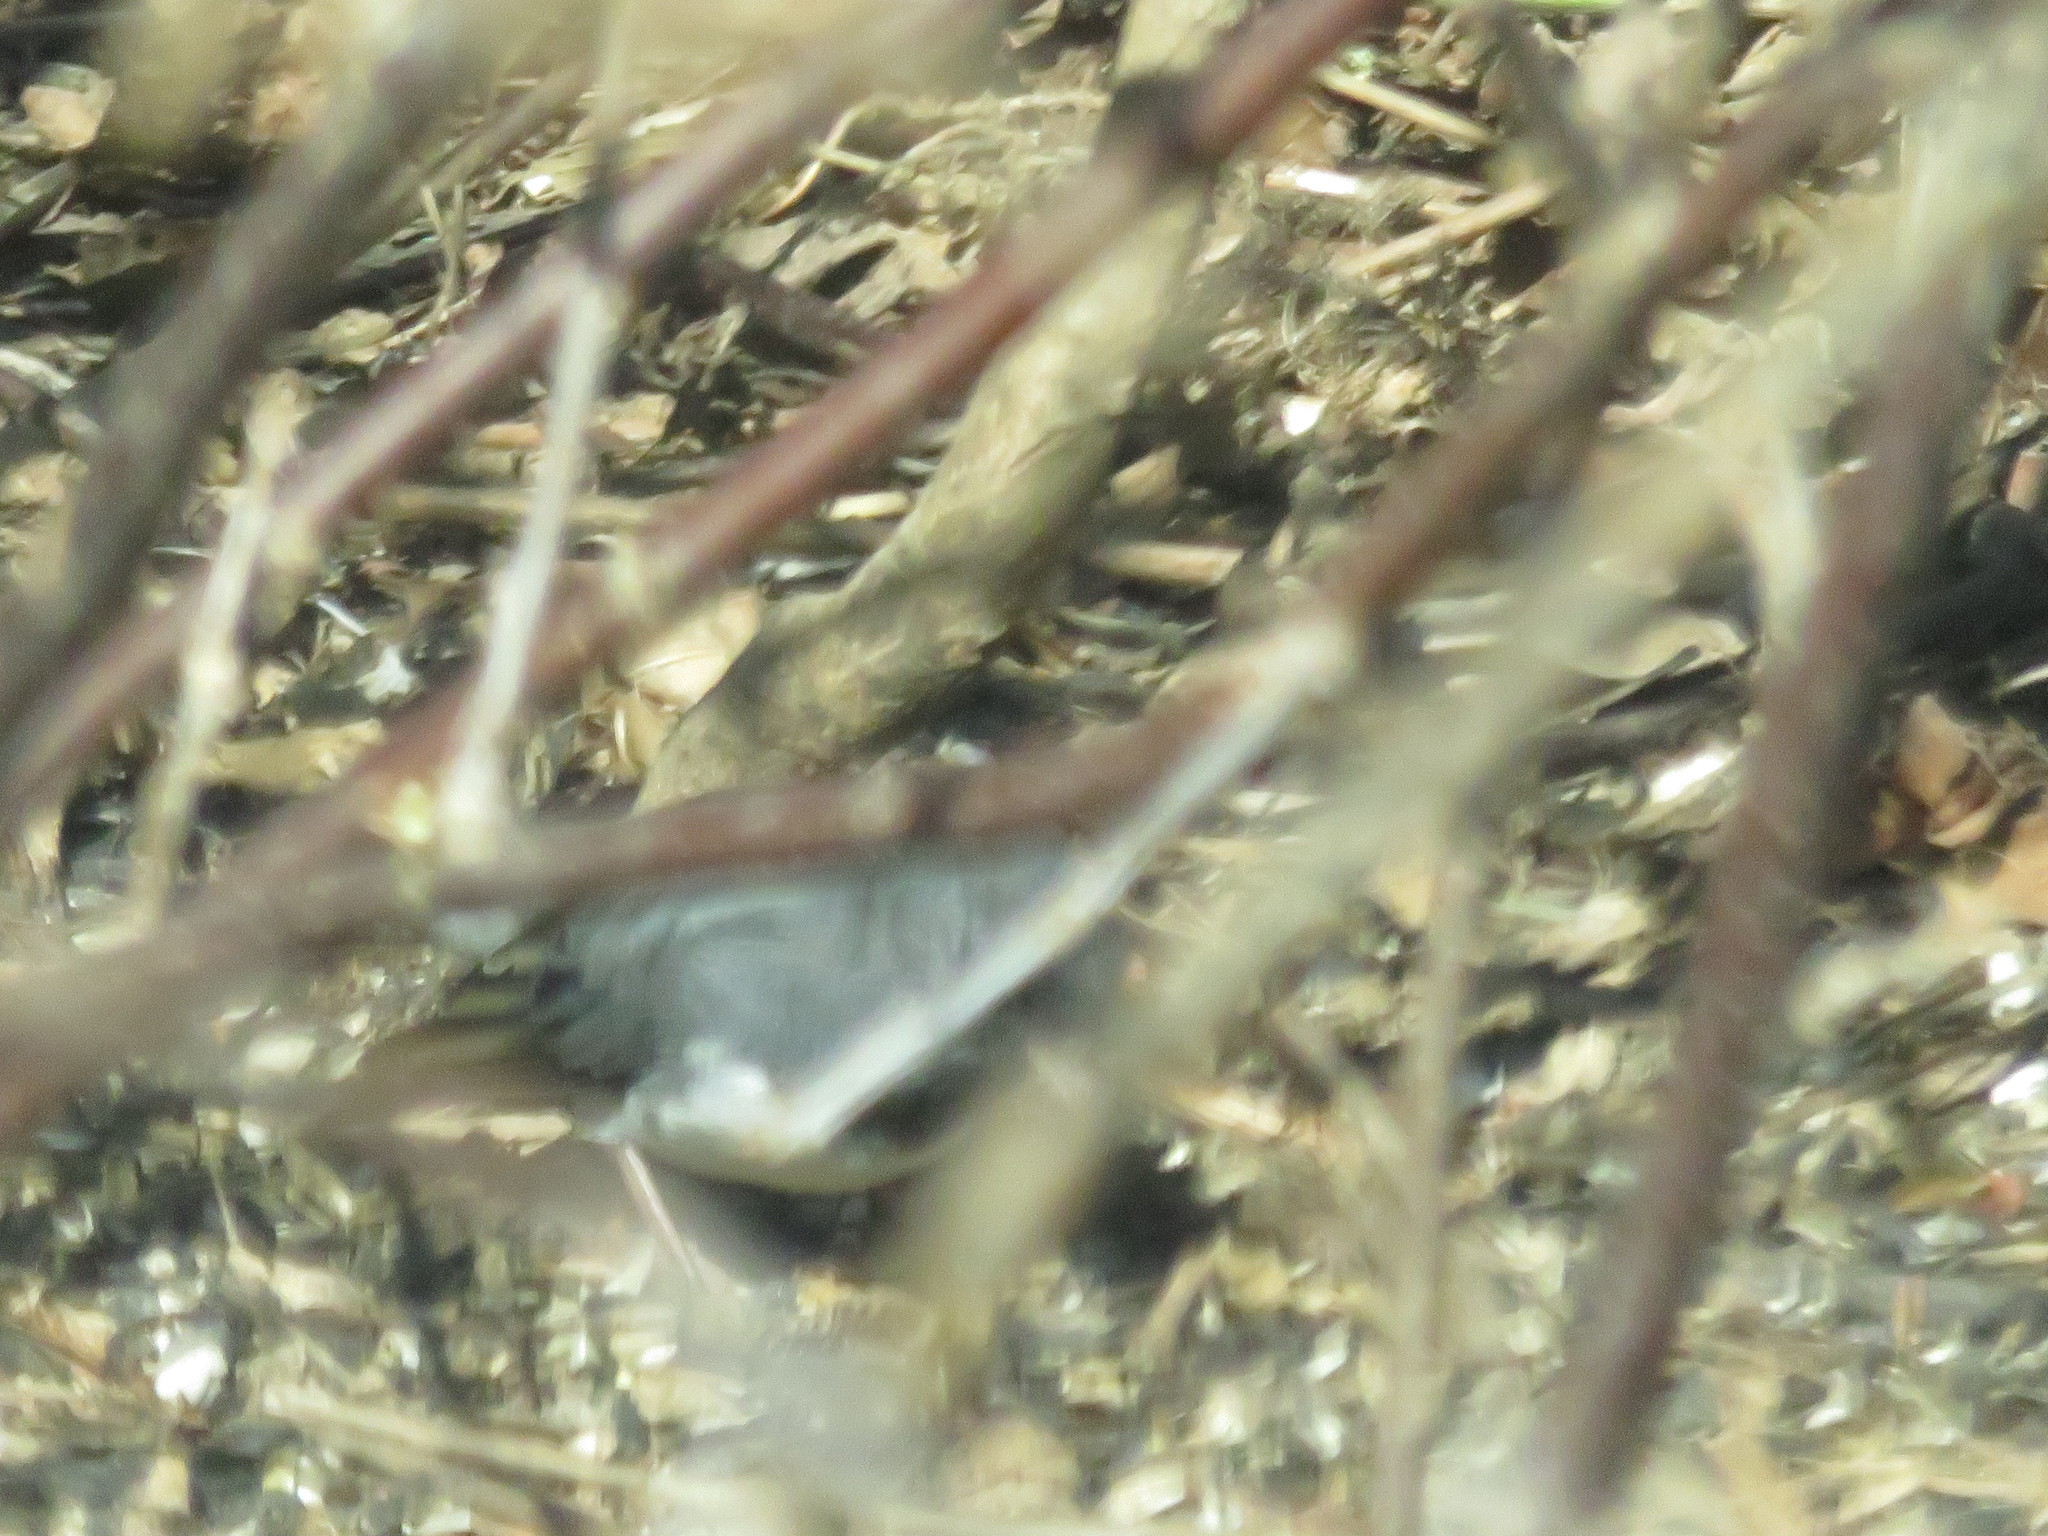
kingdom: Animalia
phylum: Chordata
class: Aves
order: Passeriformes
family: Passerellidae
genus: Junco
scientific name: Junco hyemalis
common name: Dark-eyed junco
